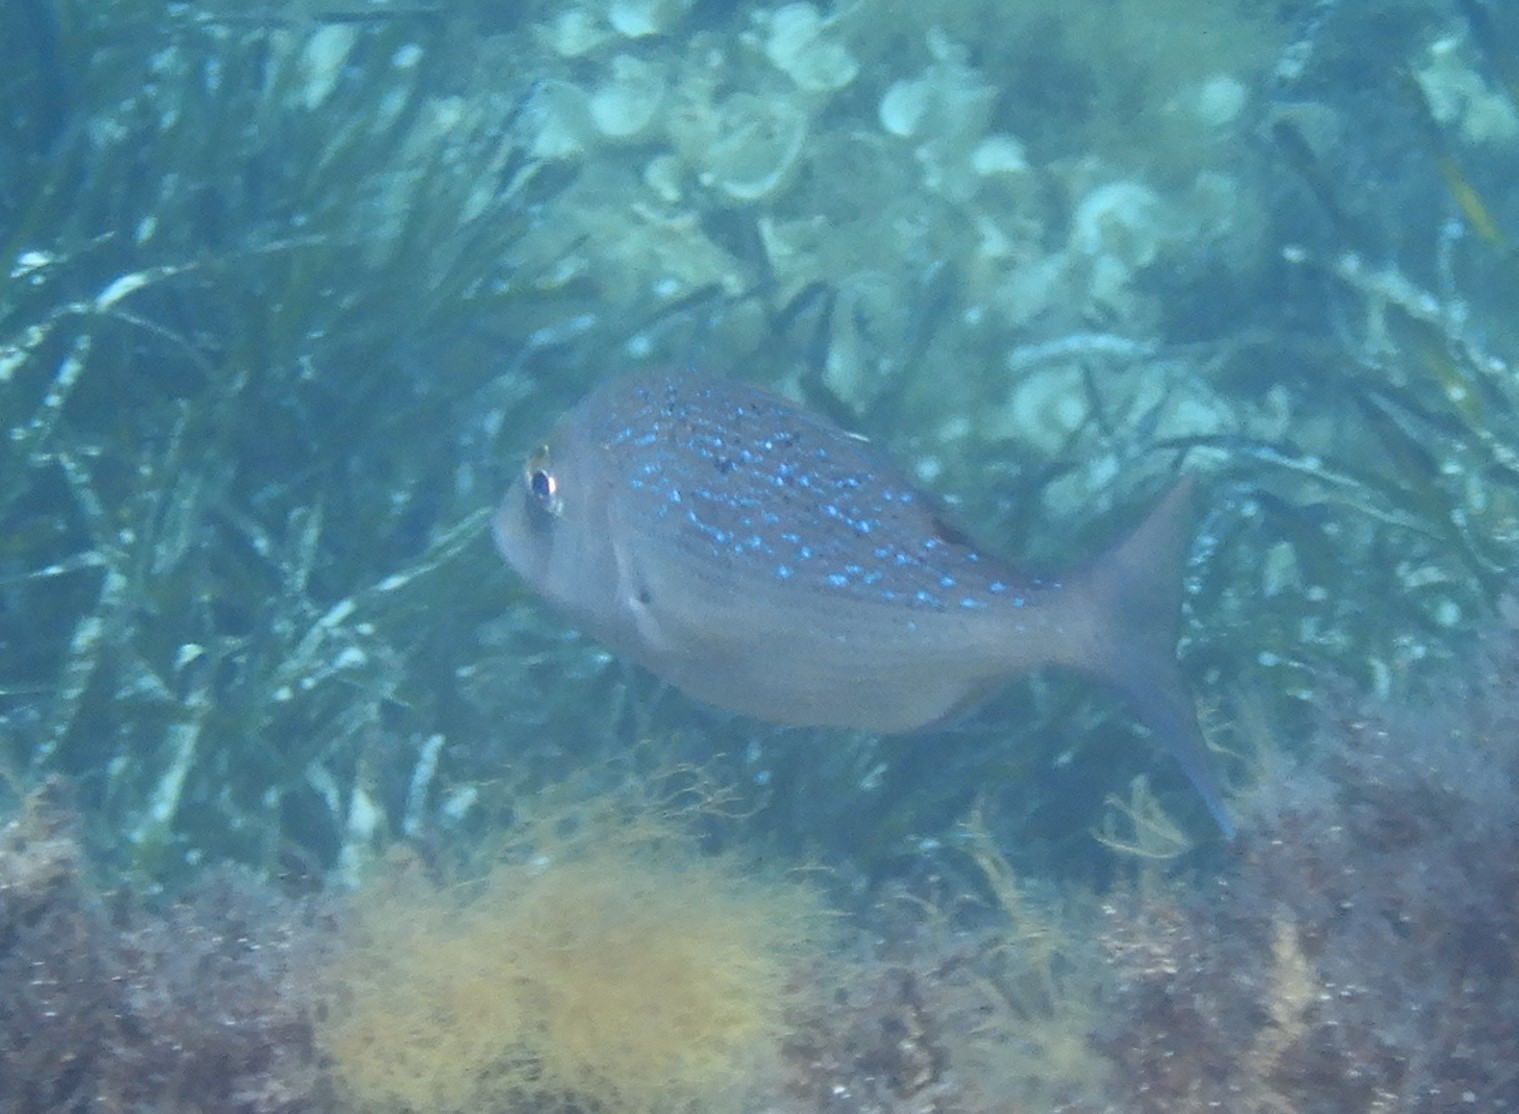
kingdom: Animalia
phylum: Chordata
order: Perciformes
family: Sparidae
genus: Dentex
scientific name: Dentex dentex
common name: Dentex
